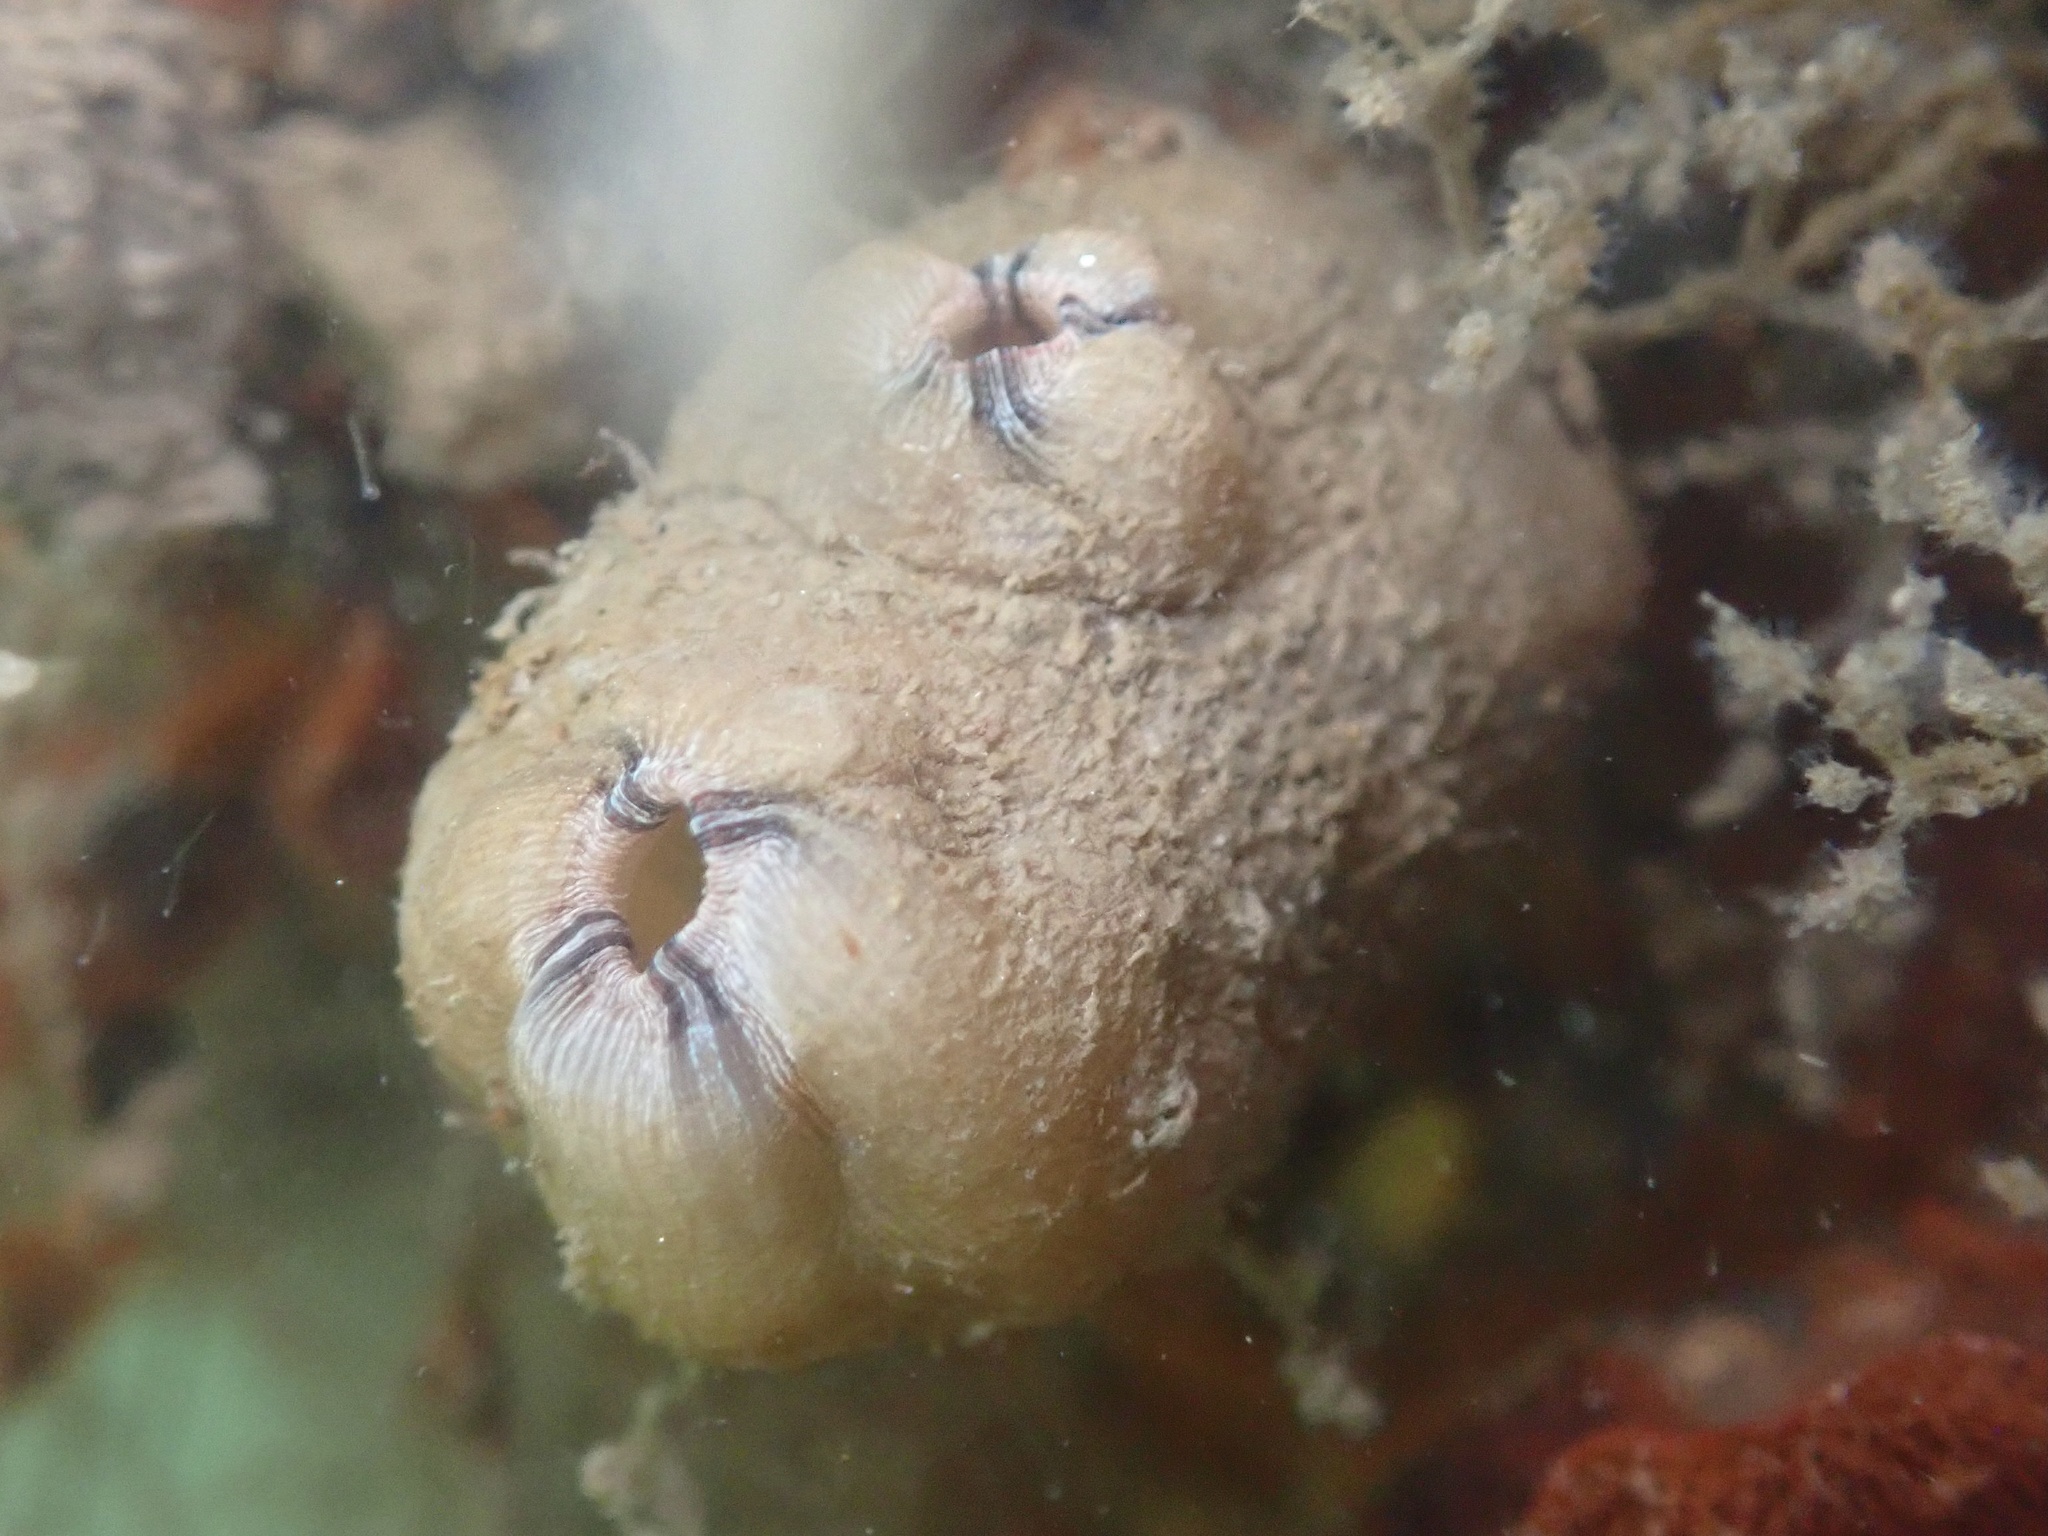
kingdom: Animalia
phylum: Chordata
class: Ascidiacea
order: Stolidobranchia
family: Styelidae
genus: Styela
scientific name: Styela plicata
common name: Pleated tunicate
